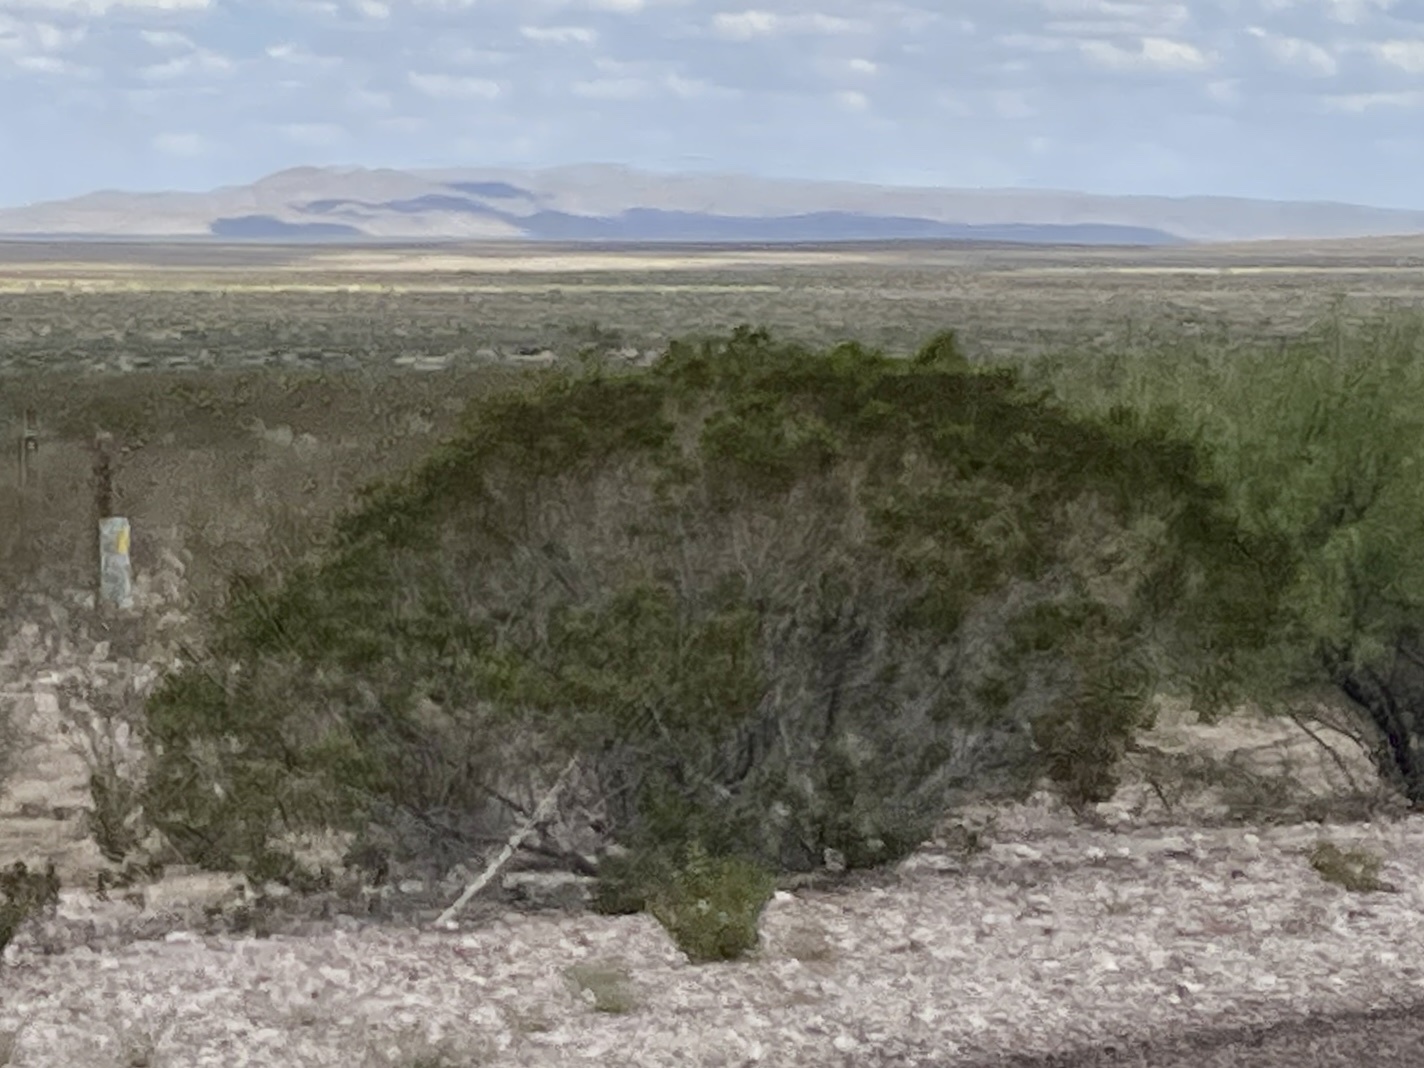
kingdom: Plantae
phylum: Tracheophyta
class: Magnoliopsida
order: Zygophyllales
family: Zygophyllaceae
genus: Larrea
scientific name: Larrea tridentata
